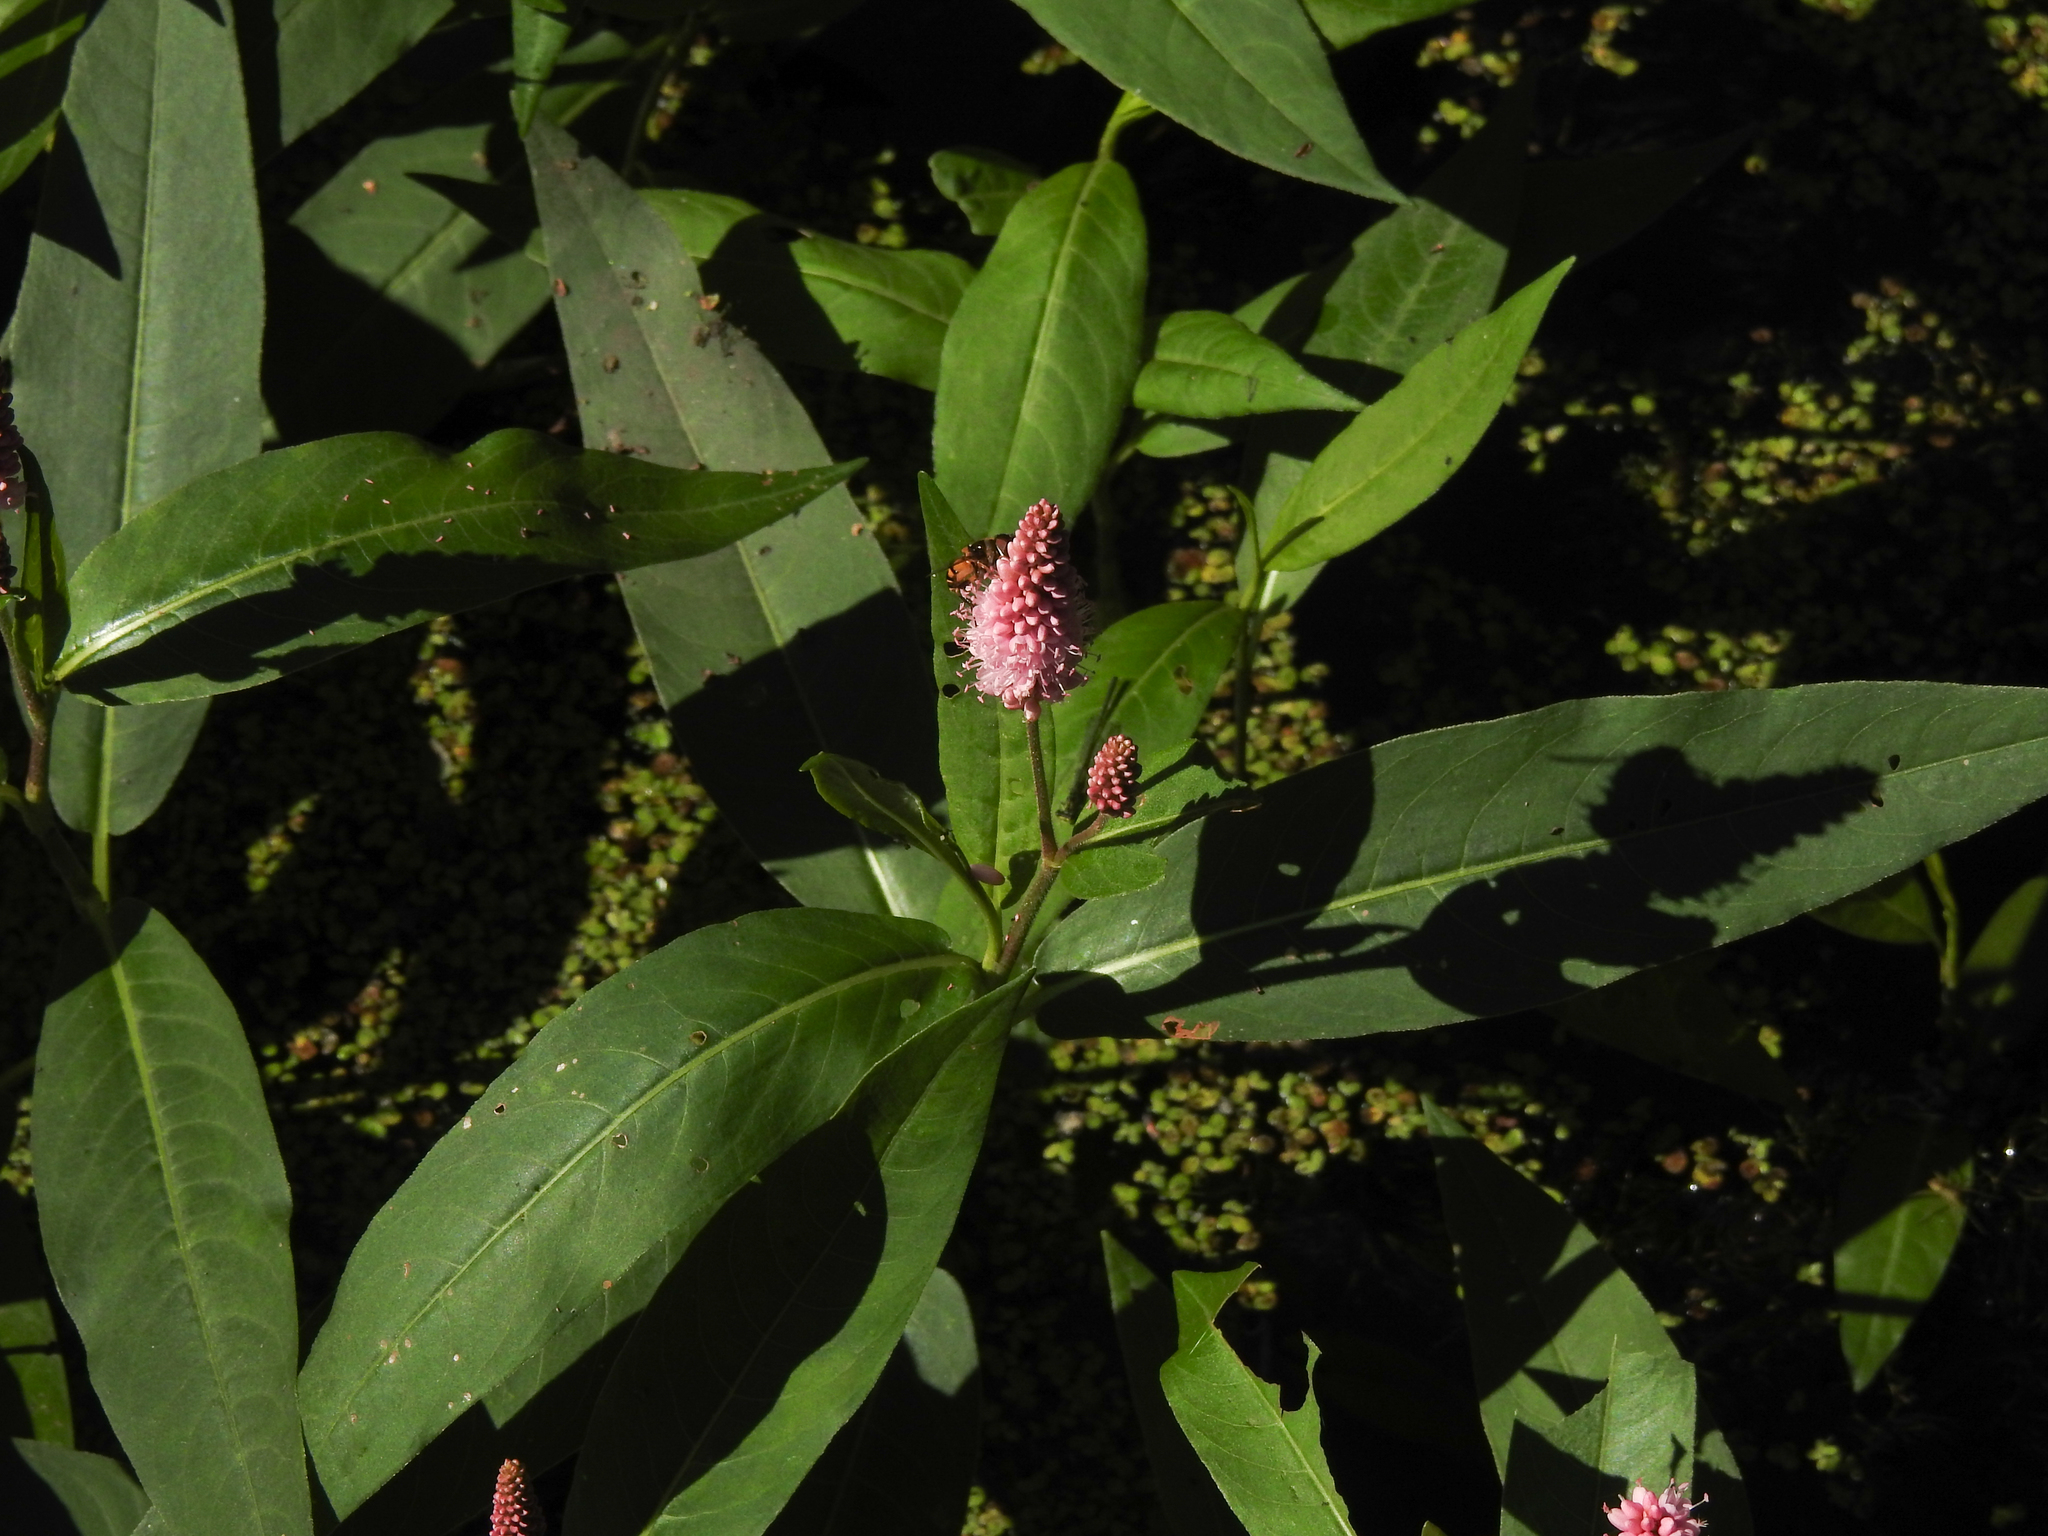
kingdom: Plantae
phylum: Tracheophyta
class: Magnoliopsida
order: Caryophyllales
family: Polygonaceae
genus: Persicaria
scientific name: Persicaria amphibia
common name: Amphibious bistort
